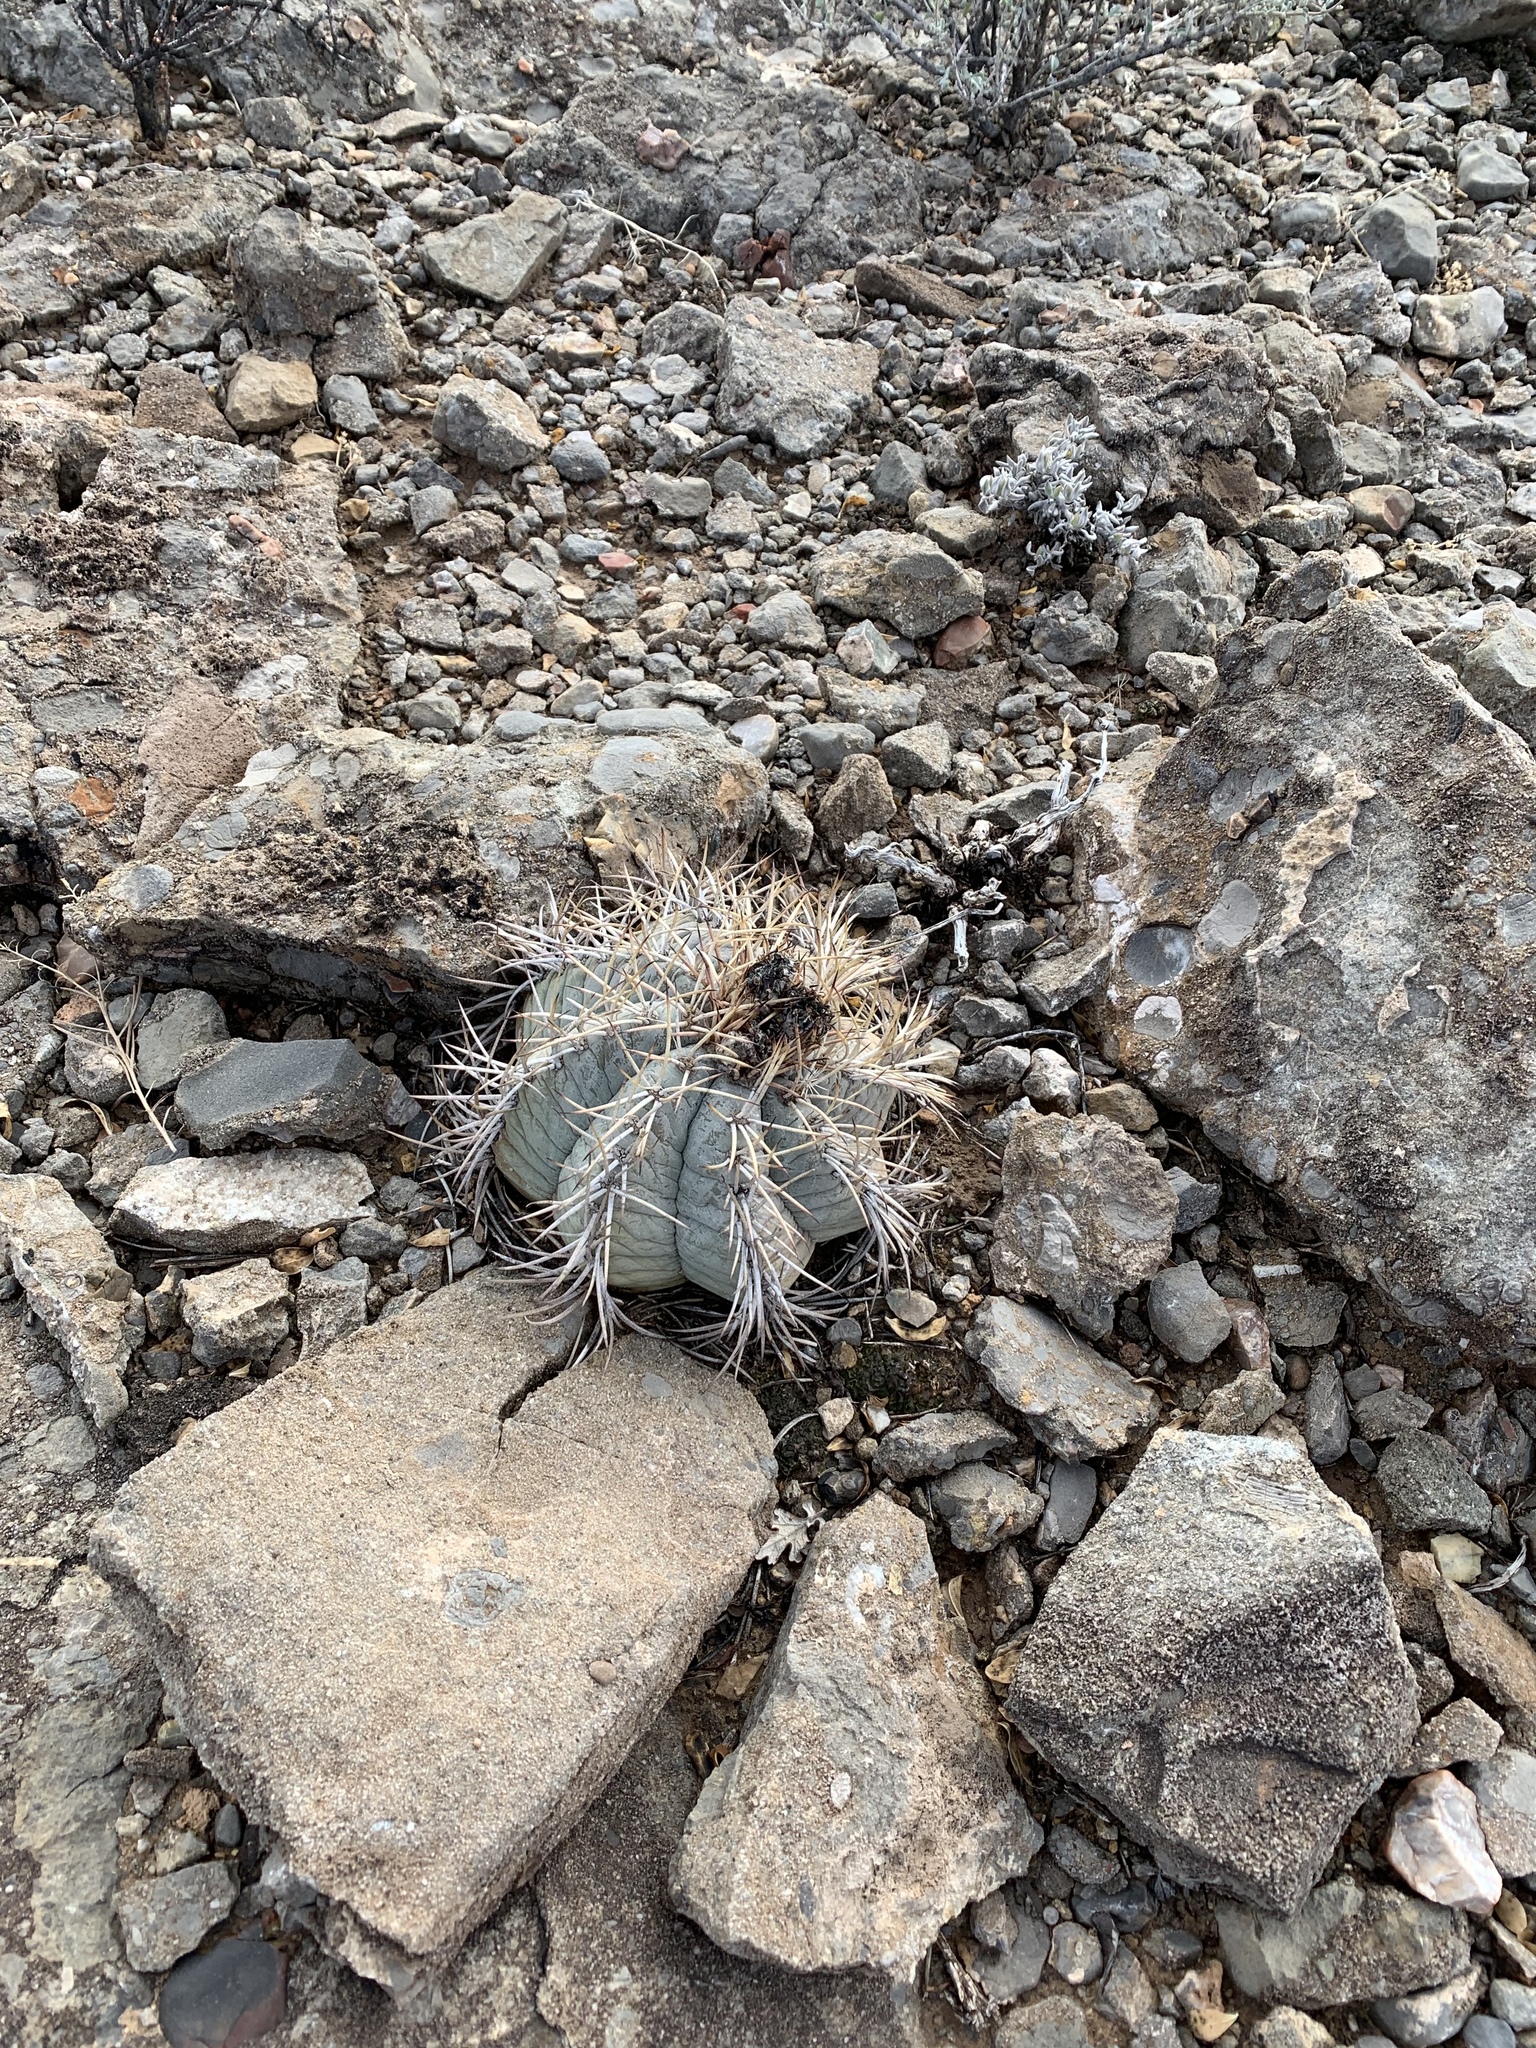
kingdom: Plantae
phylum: Tracheophyta
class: Magnoliopsida
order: Caryophyllales
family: Cactaceae
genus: Echinocactus
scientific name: Echinocactus horizonthalonius
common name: Devilshead
